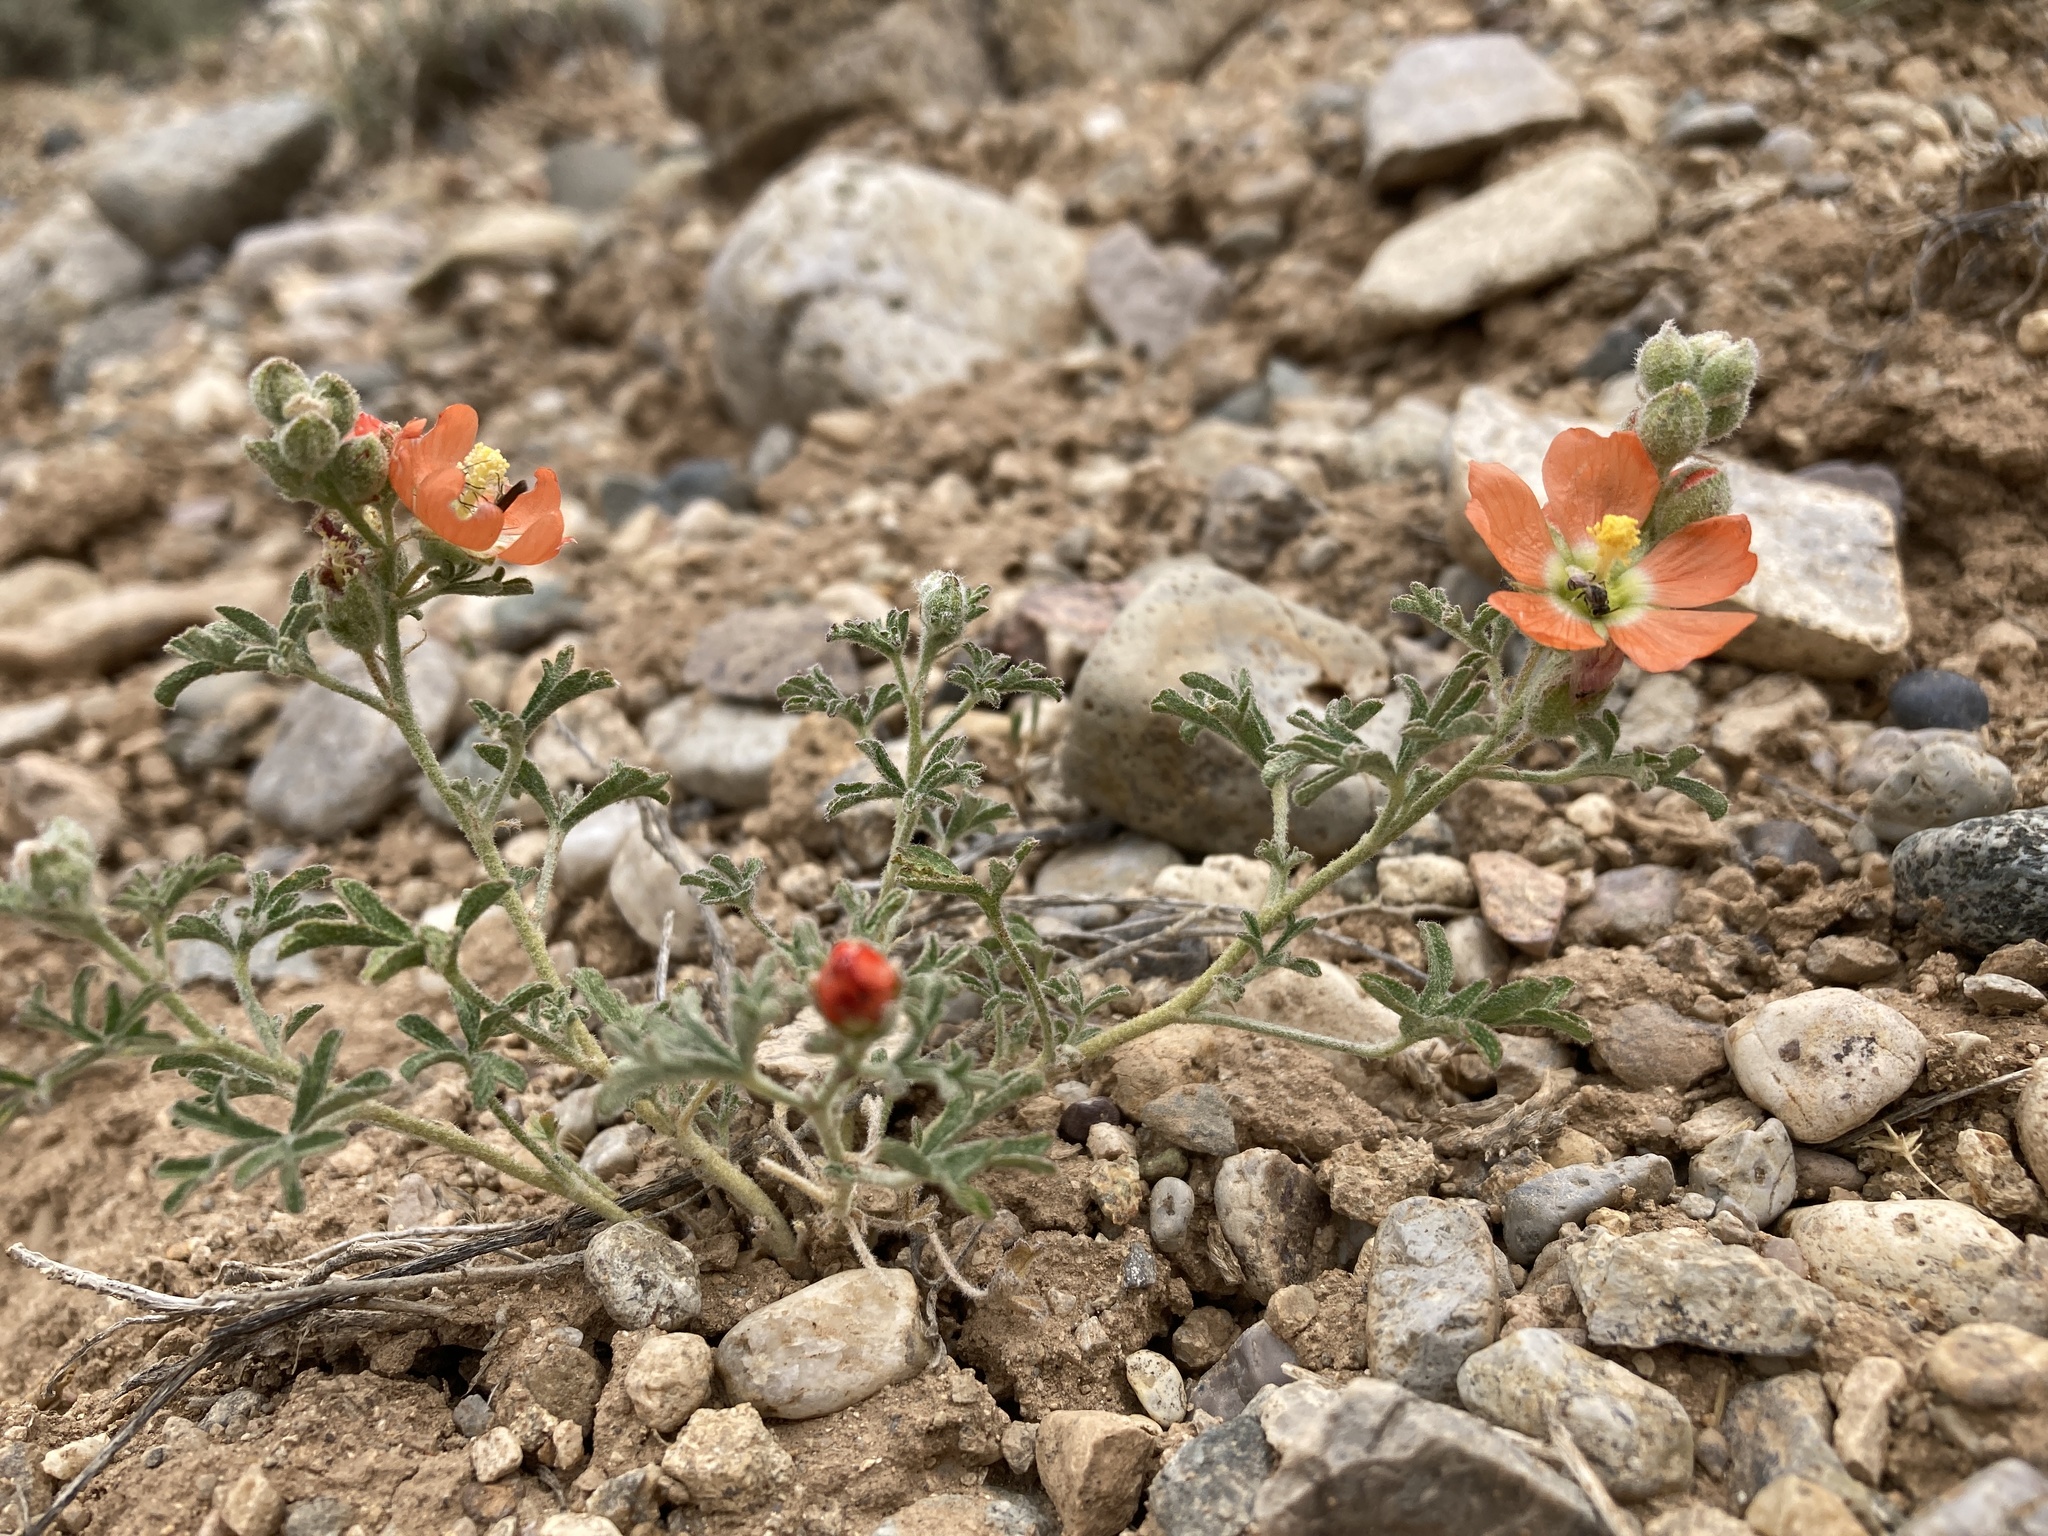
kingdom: Plantae
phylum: Tracheophyta
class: Magnoliopsida
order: Malvales
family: Malvaceae
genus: Sphaeralcea
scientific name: Sphaeralcea coccinea
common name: Moss-rose
